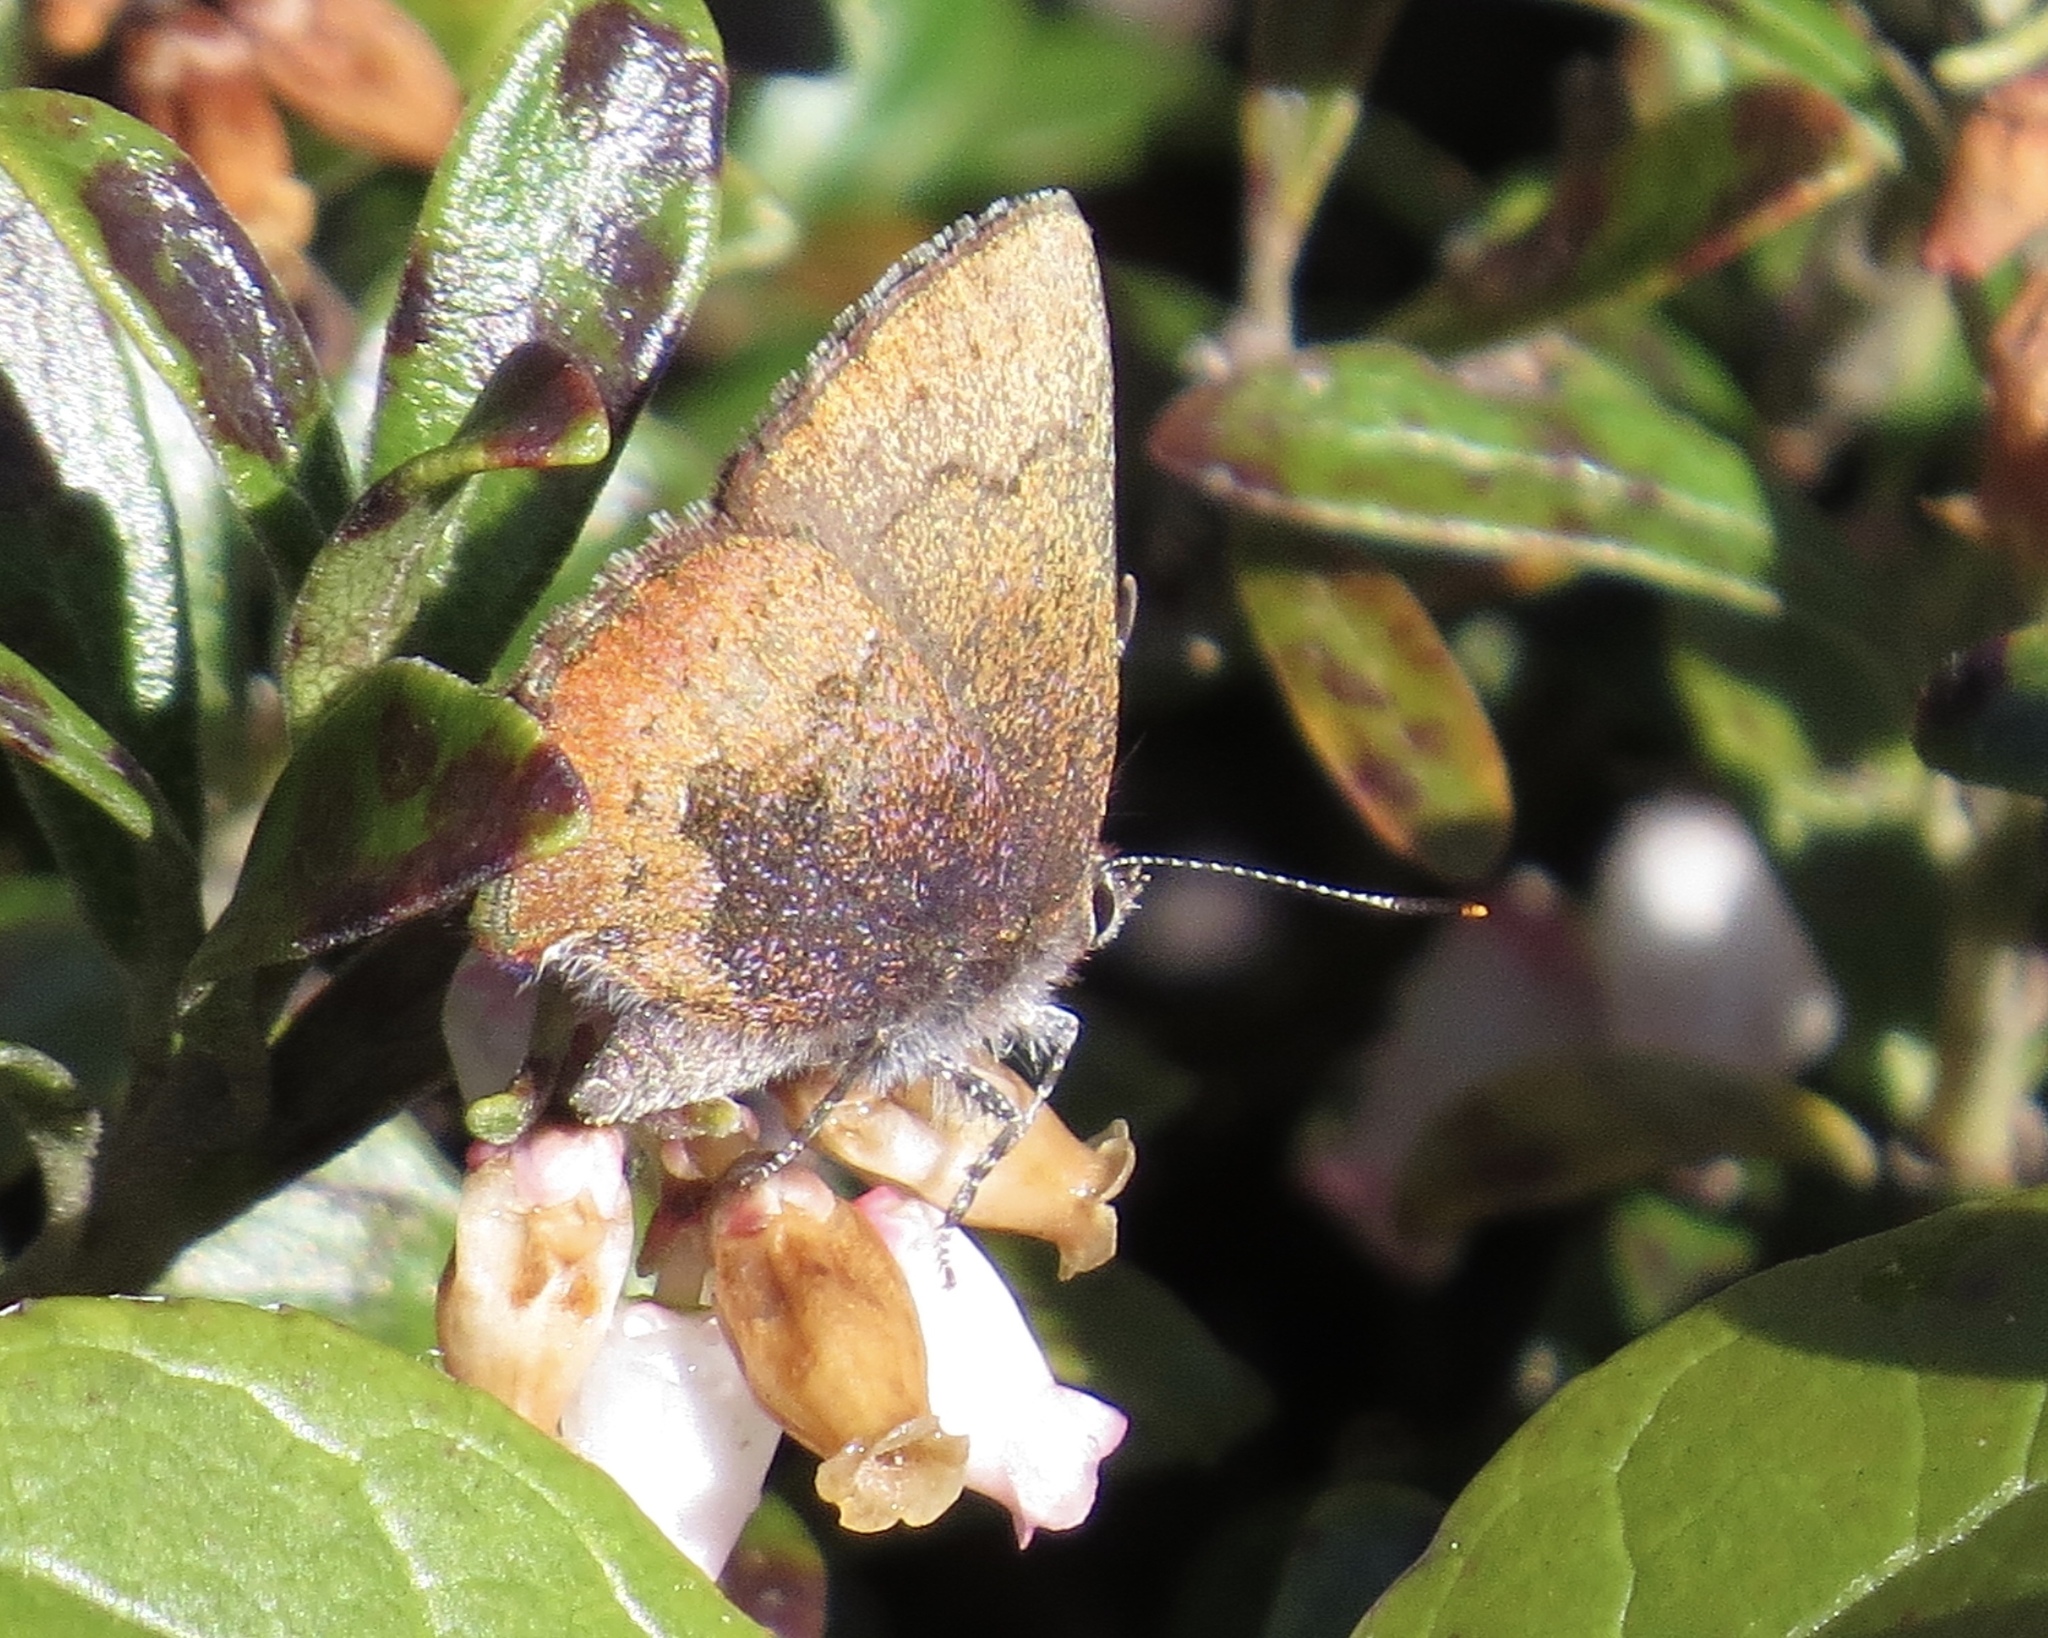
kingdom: Animalia
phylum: Arthropoda
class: Insecta
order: Lepidoptera
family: Lycaenidae
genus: Incisalia
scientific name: Incisalia irioides
